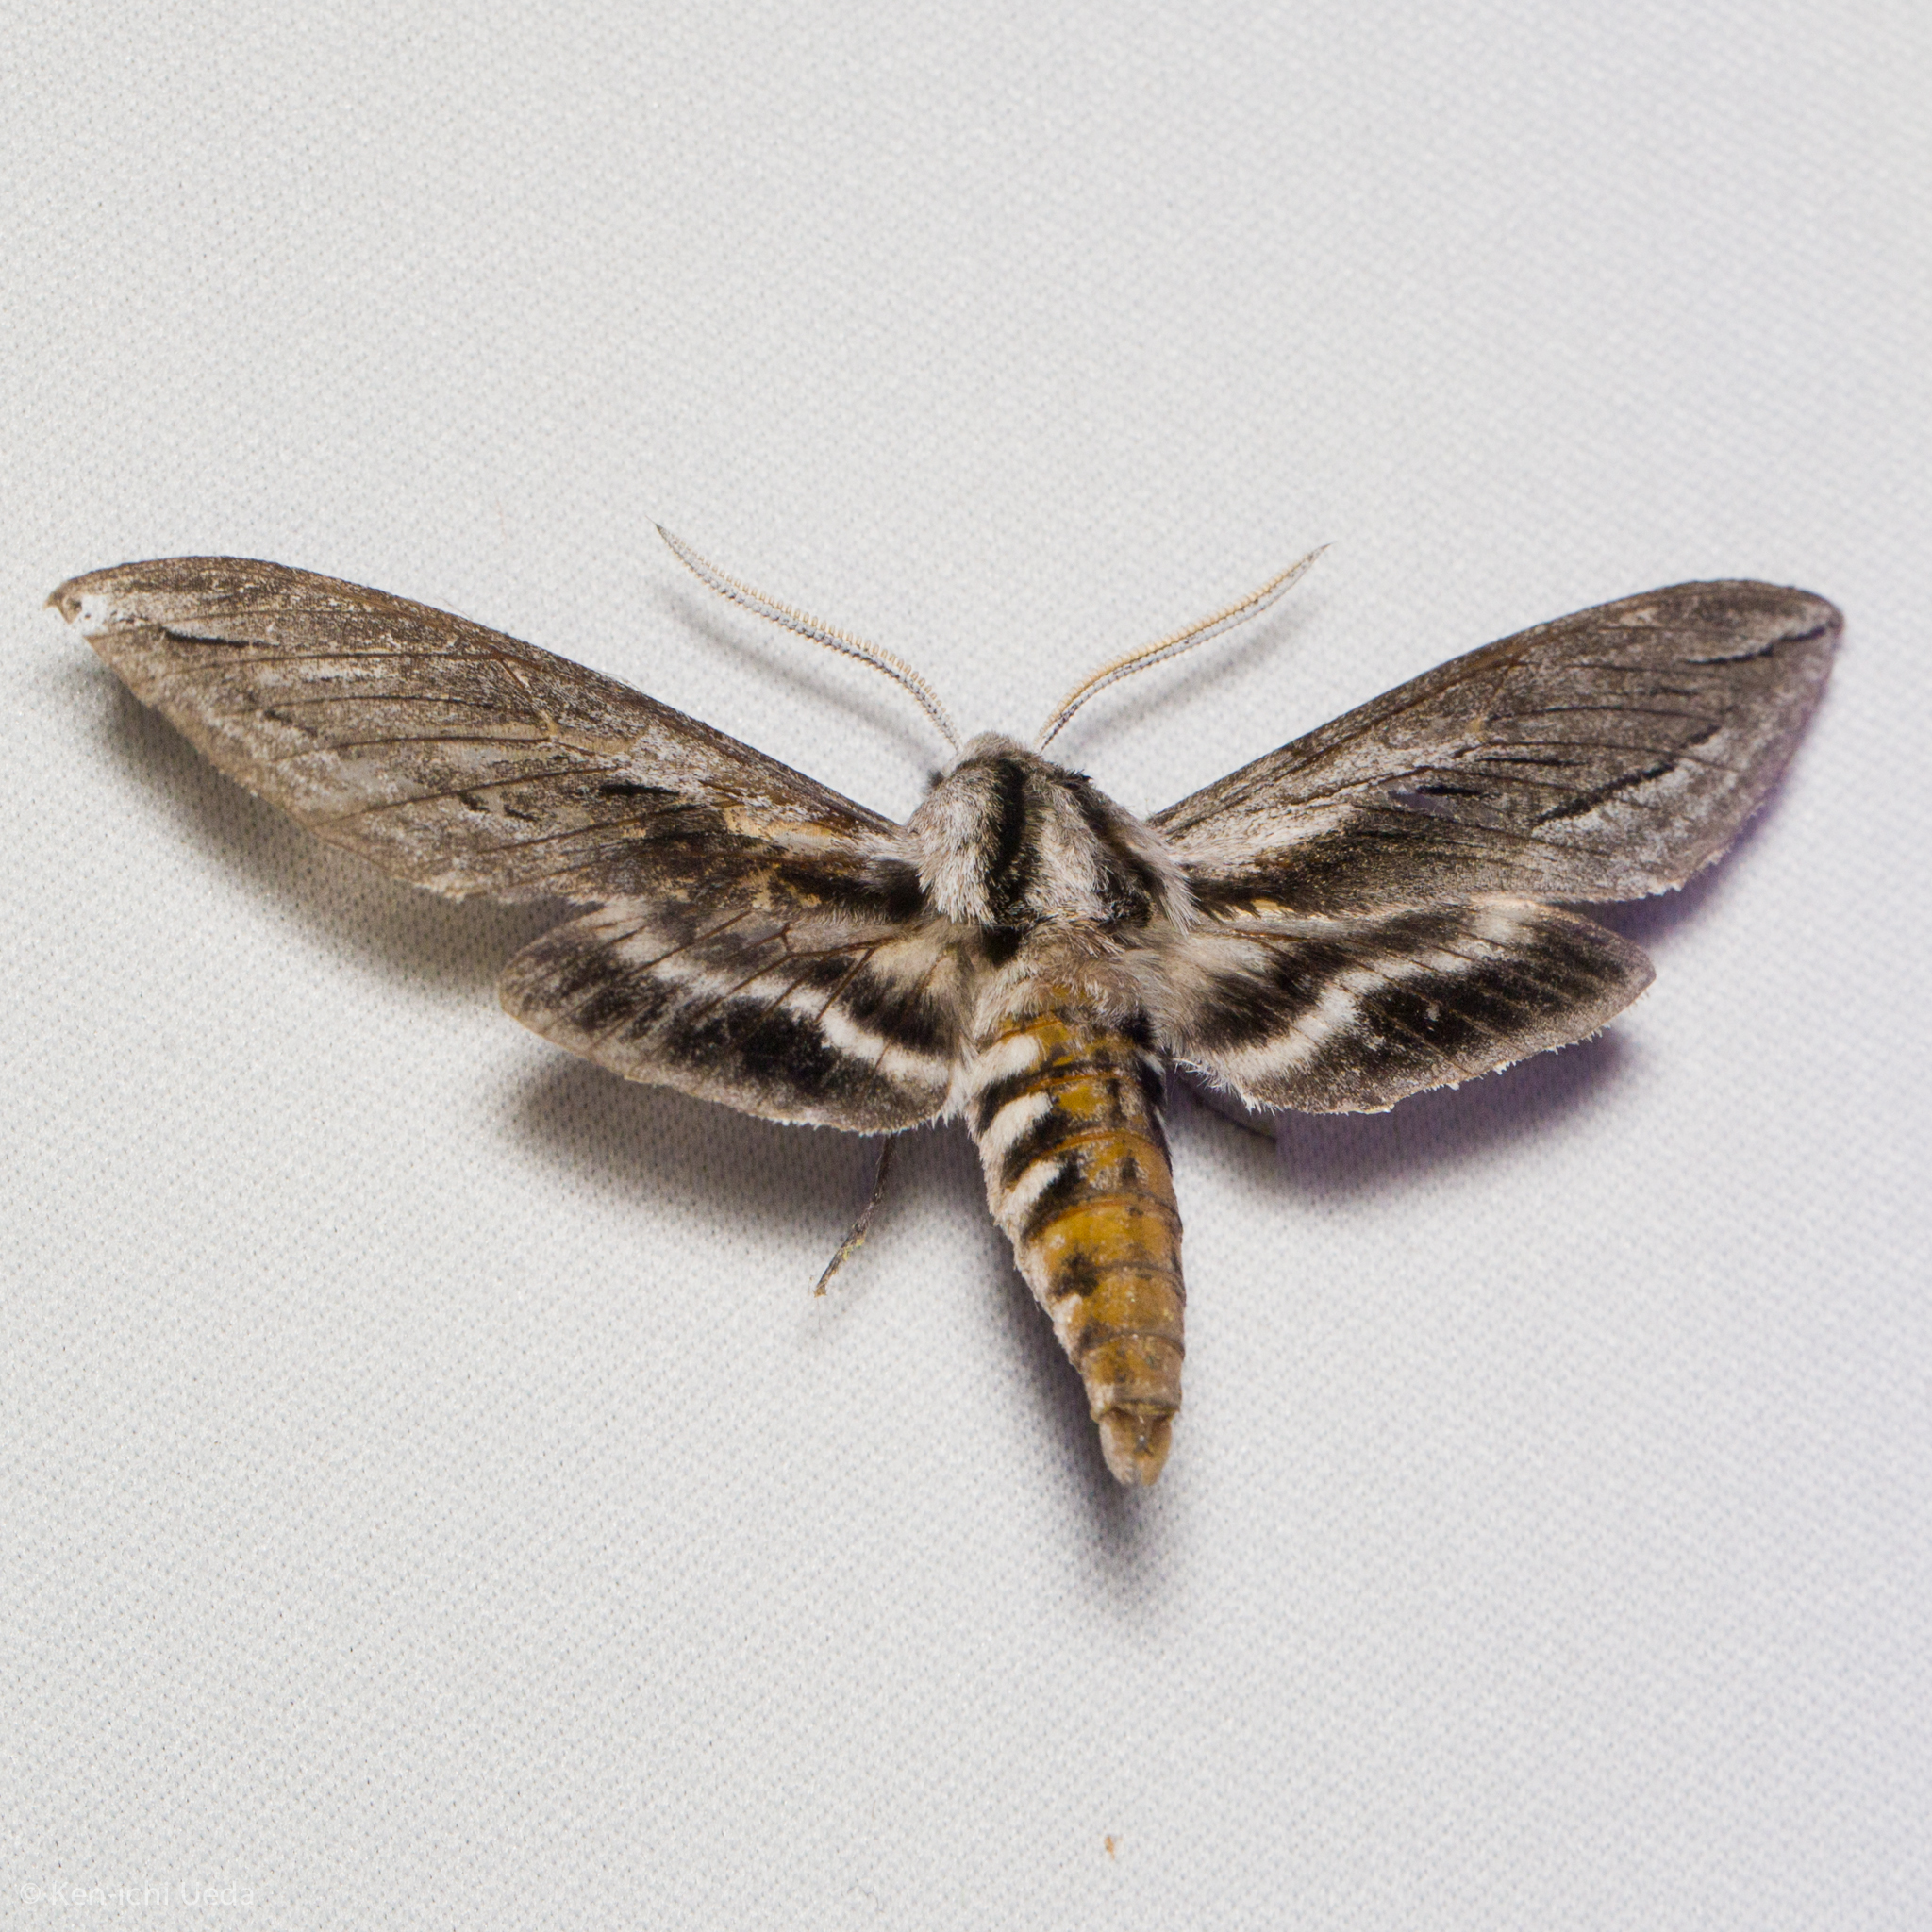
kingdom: Animalia
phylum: Arthropoda
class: Insecta
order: Lepidoptera
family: Sphingidae
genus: Sphinx
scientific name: Sphinx vashti
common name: Snowberry sphinx
